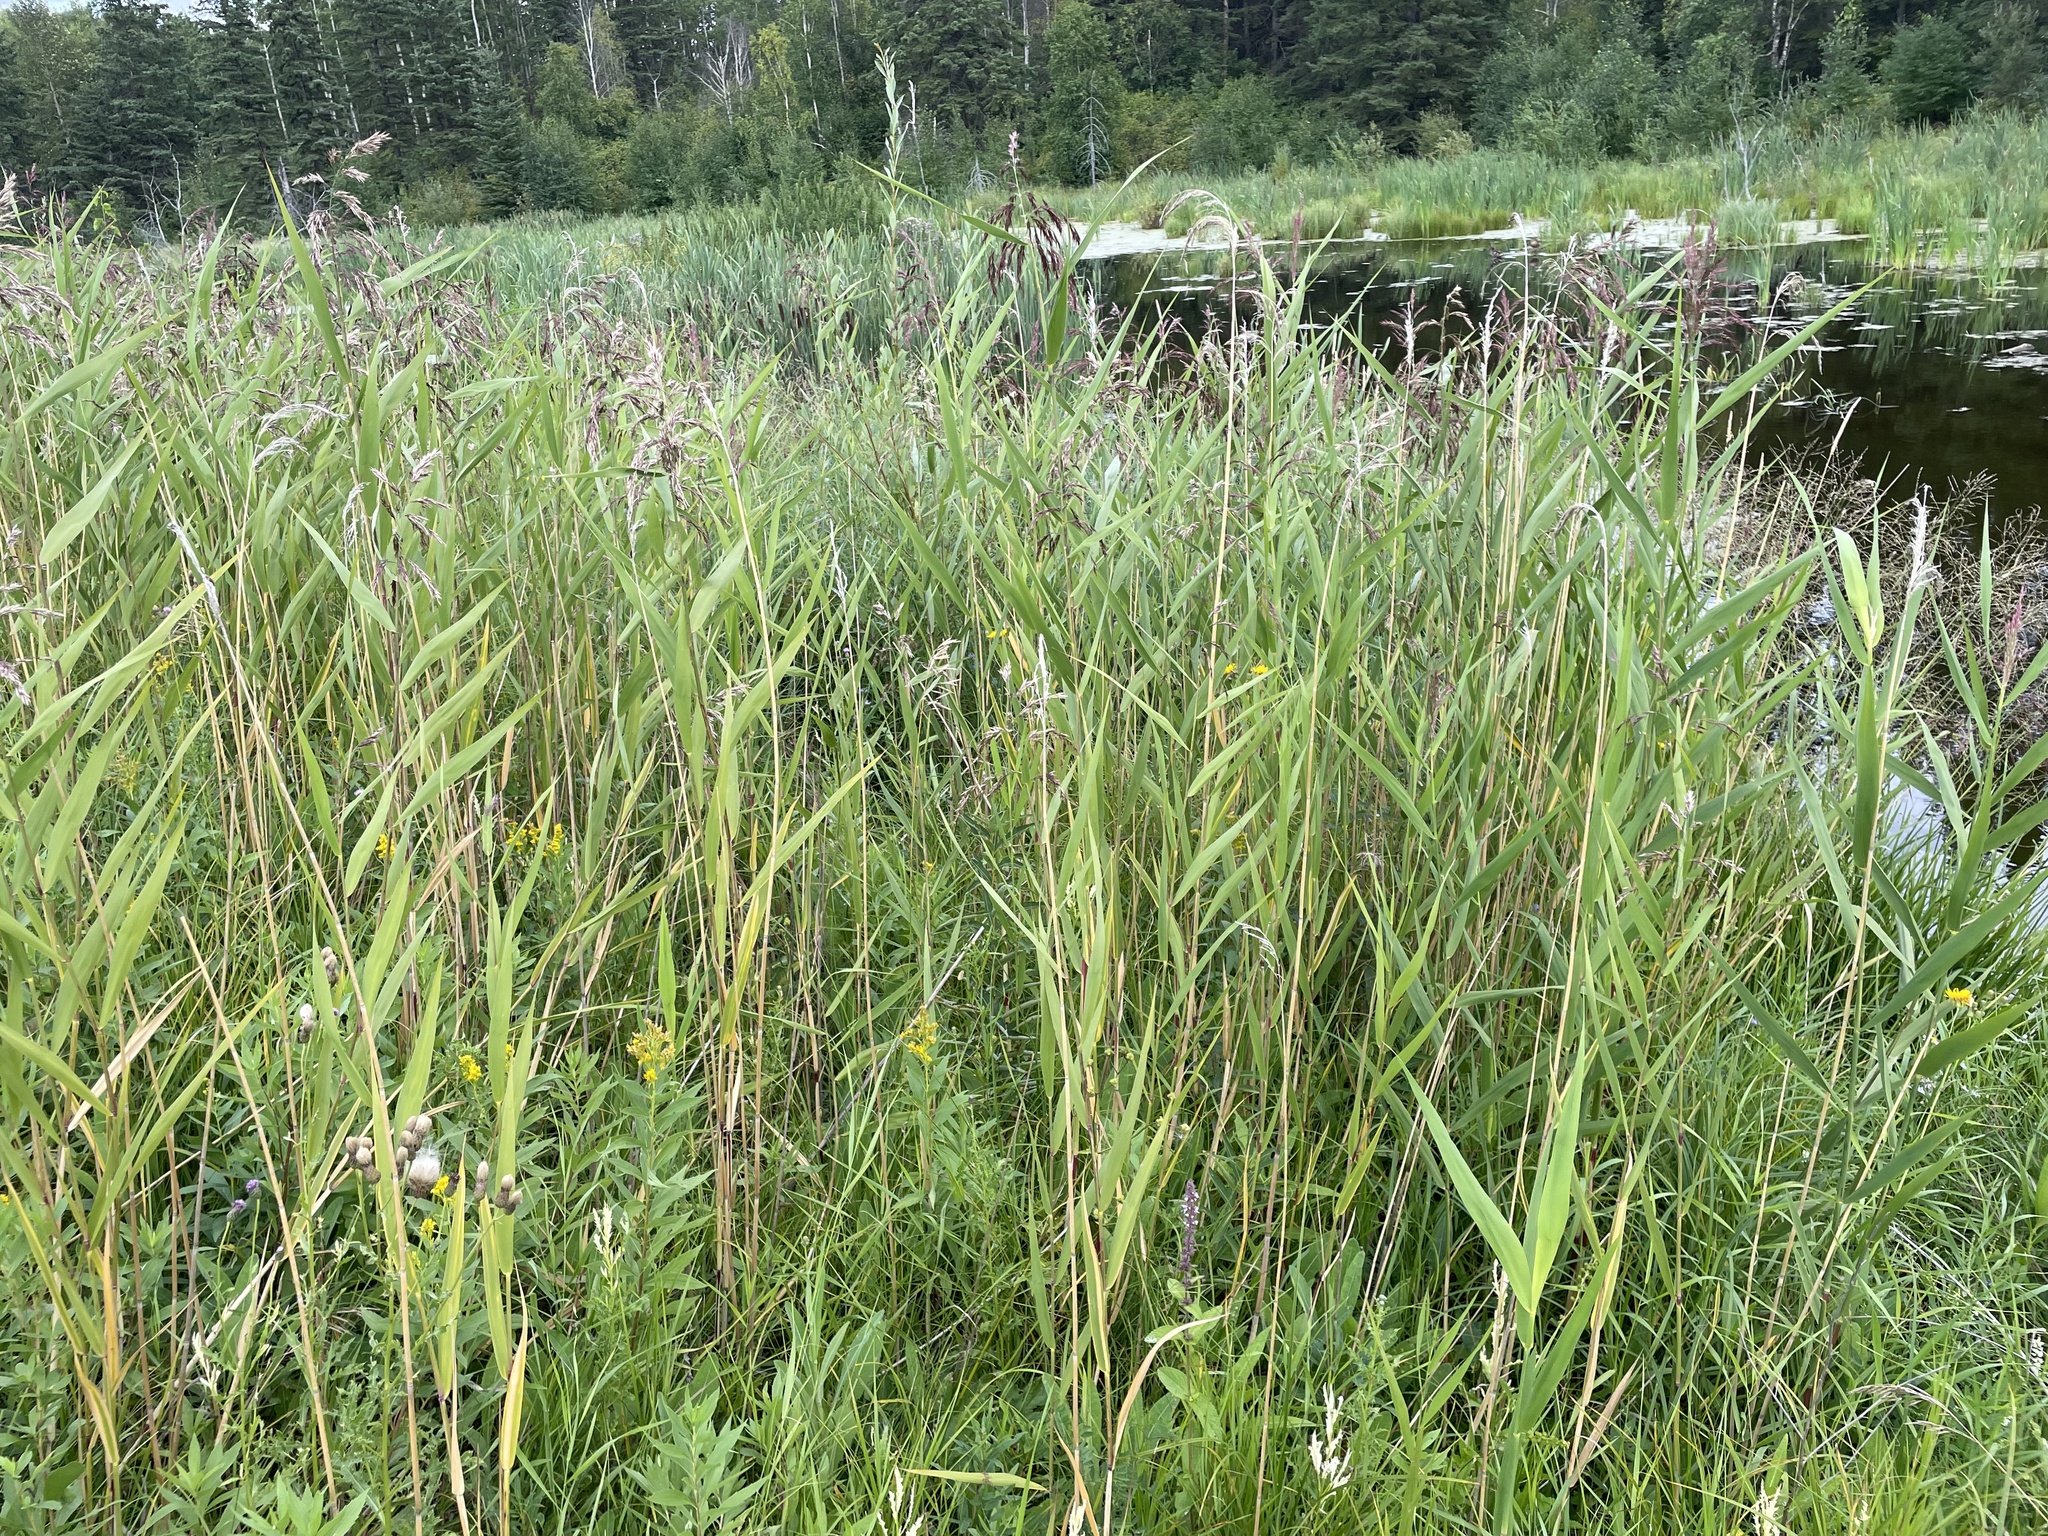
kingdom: Plantae
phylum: Tracheophyta
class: Liliopsida
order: Poales
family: Poaceae
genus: Phragmites
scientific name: Phragmites australis
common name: Common reed
